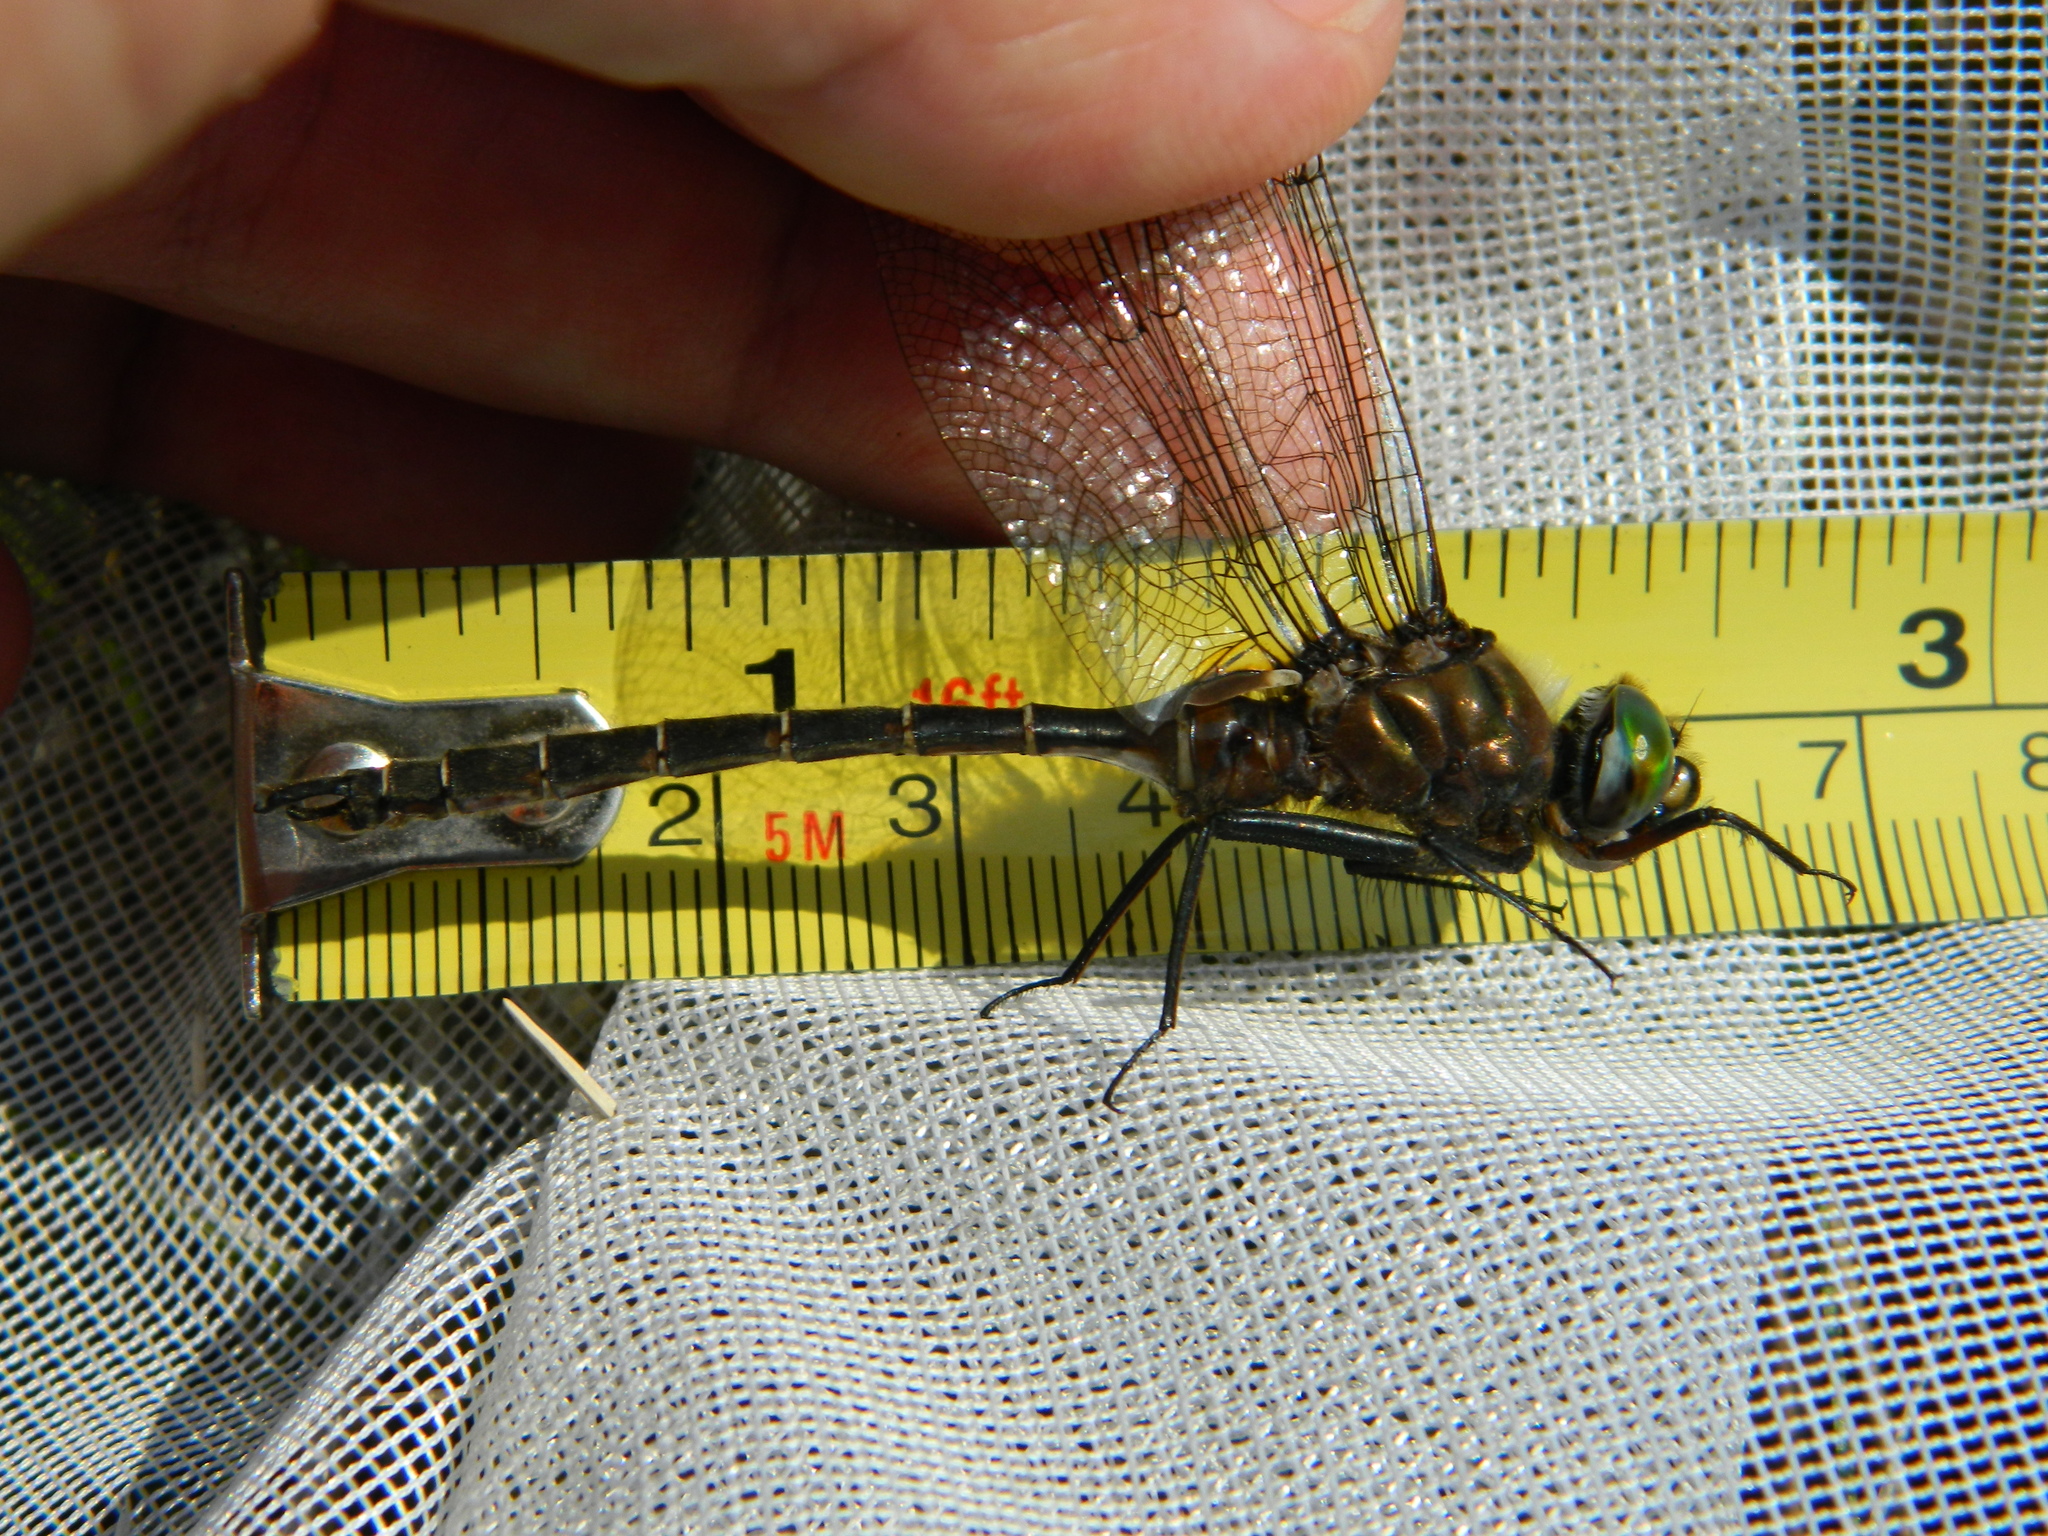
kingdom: Animalia
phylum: Arthropoda
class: Insecta
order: Odonata
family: Corduliidae
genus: Somatochlora
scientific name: Somatochlora cingulata
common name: Lake emerald
